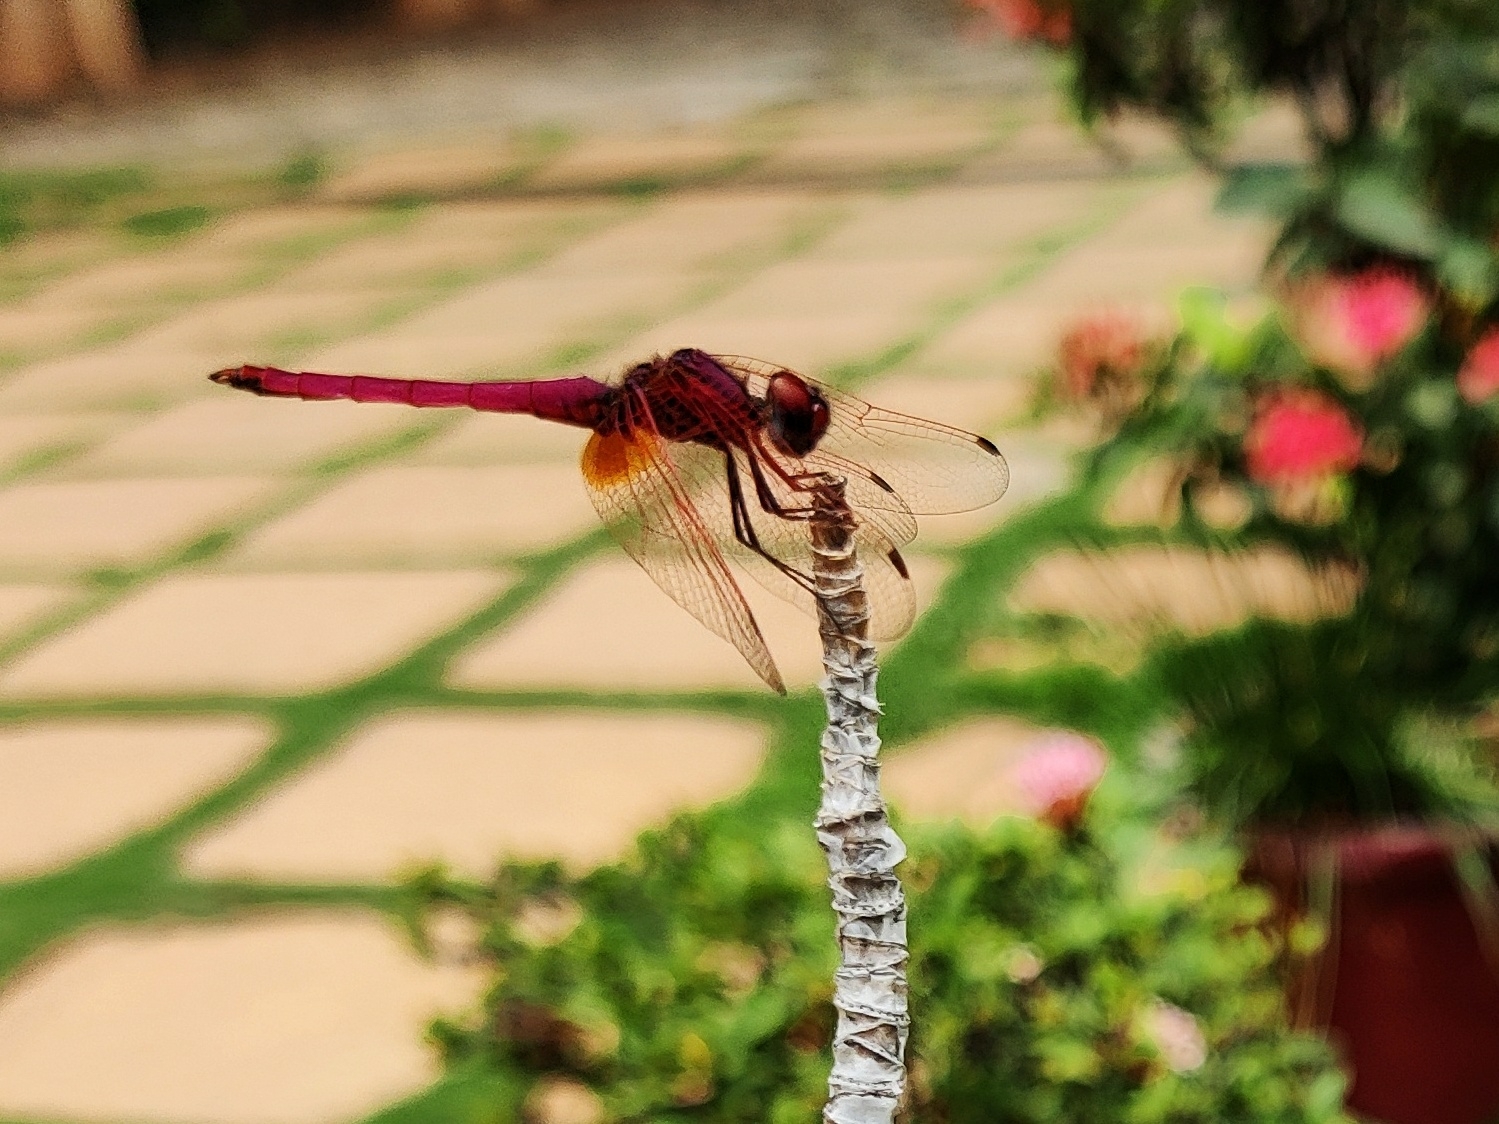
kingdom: Animalia
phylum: Arthropoda
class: Insecta
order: Odonata
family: Libellulidae
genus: Trithemis
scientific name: Trithemis aurora
